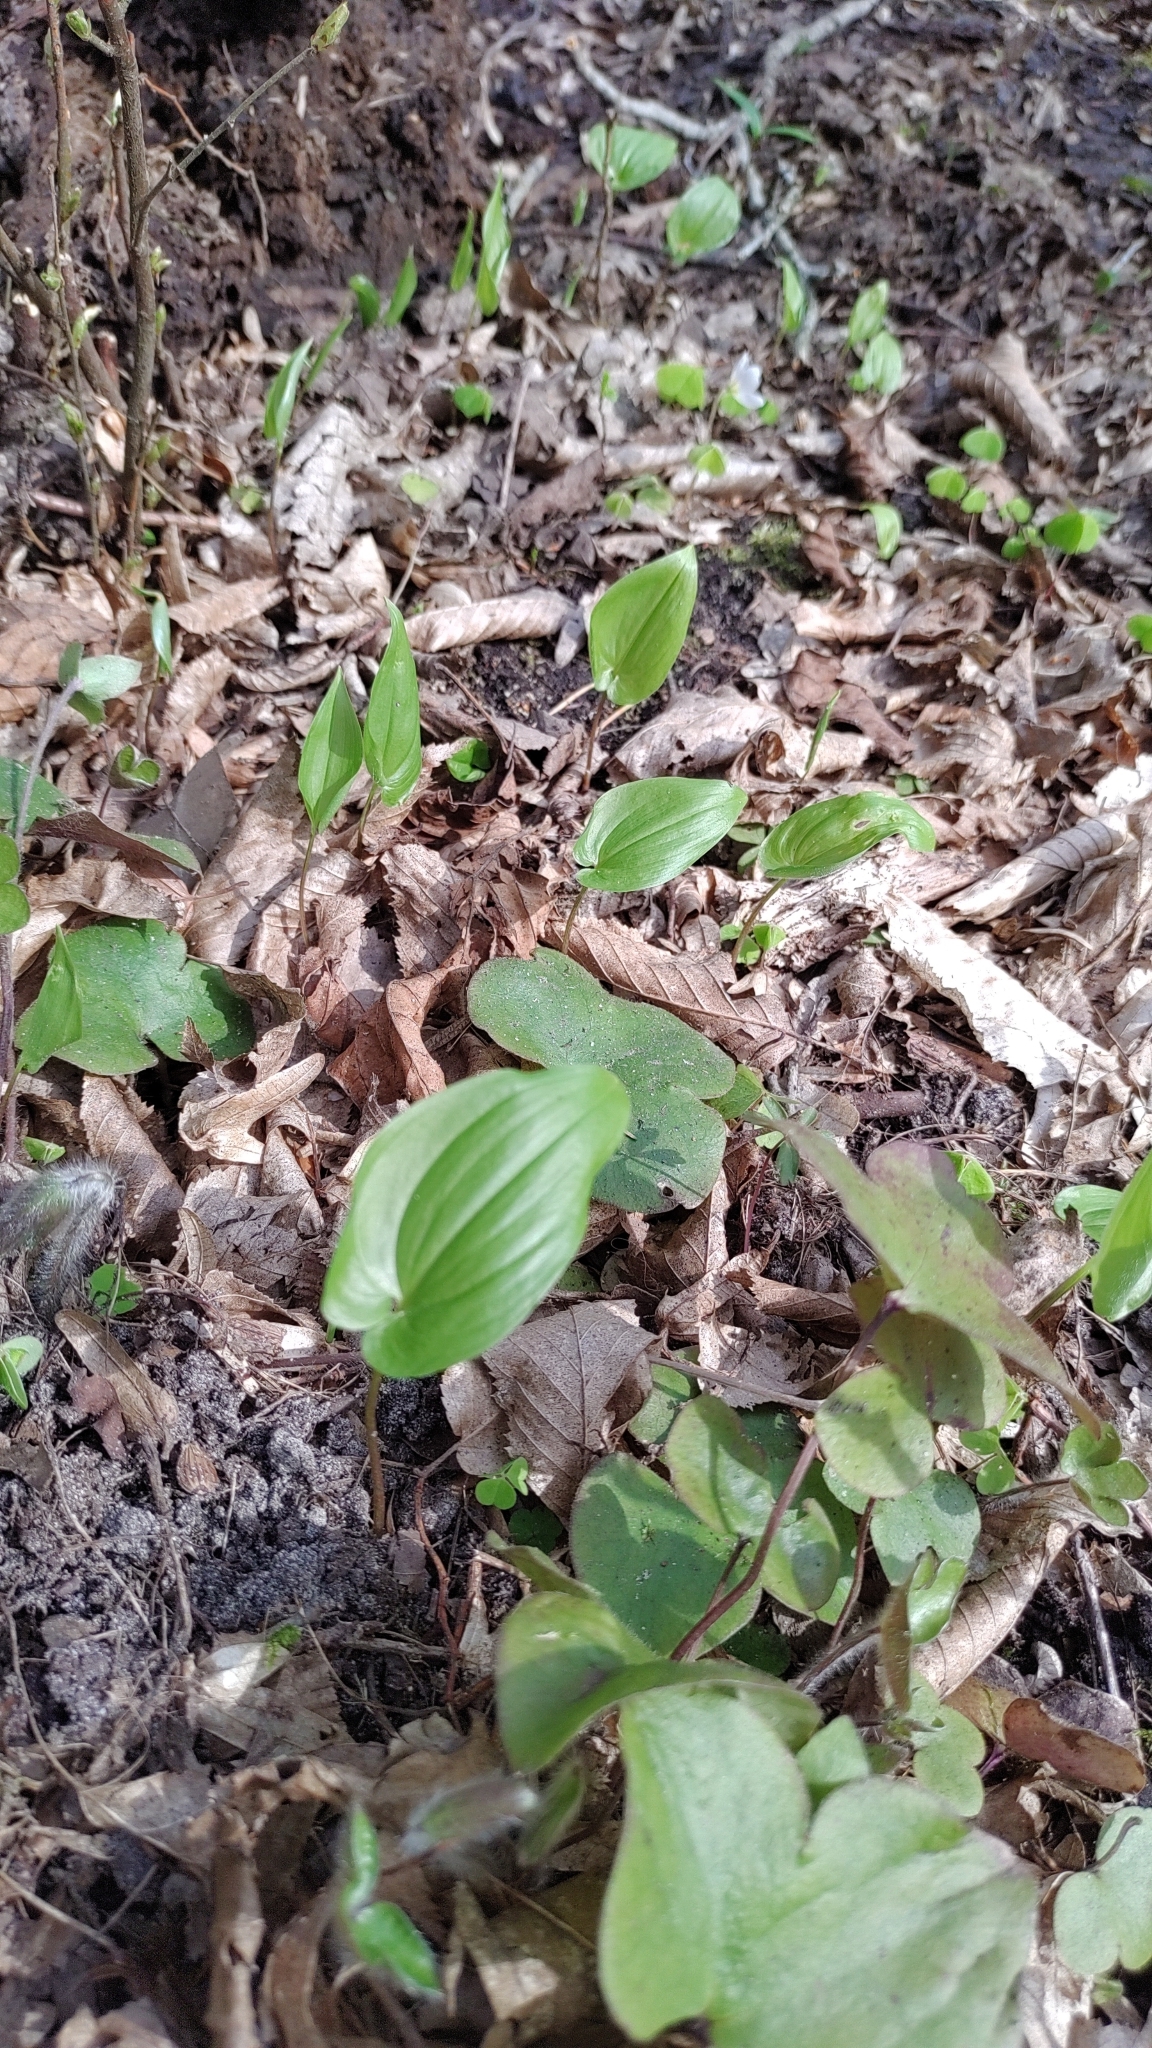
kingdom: Plantae
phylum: Tracheophyta
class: Liliopsida
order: Asparagales
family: Asparagaceae
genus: Maianthemum
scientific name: Maianthemum bifolium
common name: May lily
